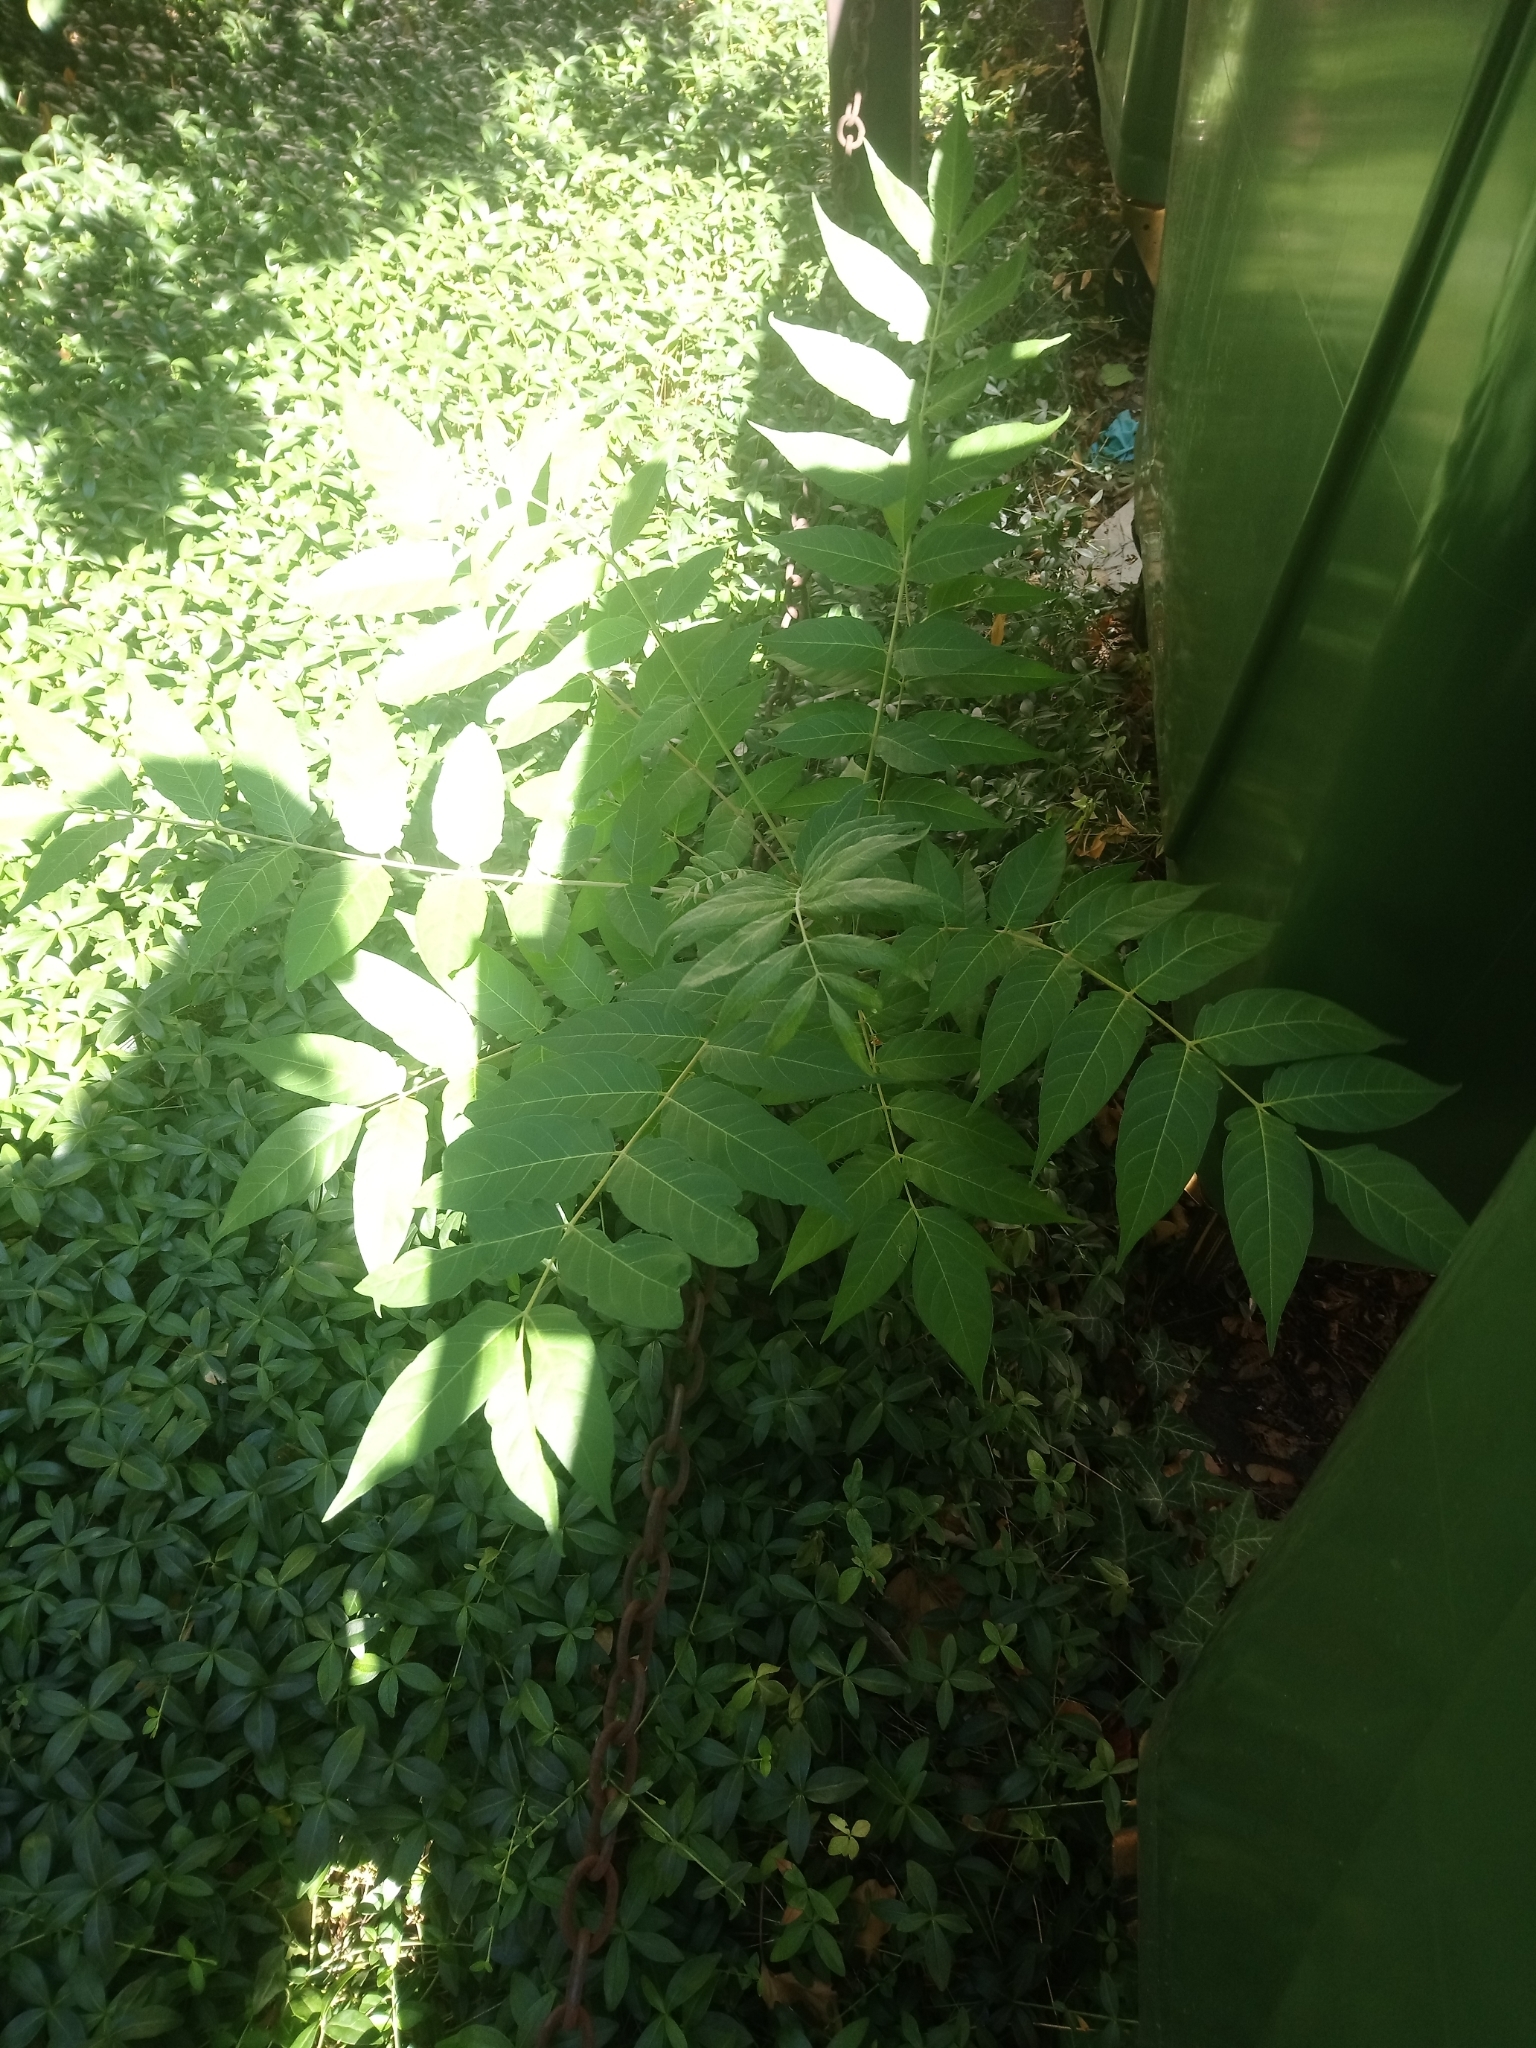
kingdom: Plantae
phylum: Tracheophyta
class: Magnoliopsida
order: Sapindales
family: Simaroubaceae
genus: Ailanthus
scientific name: Ailanthus altissima
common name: Tree-of-heaven
